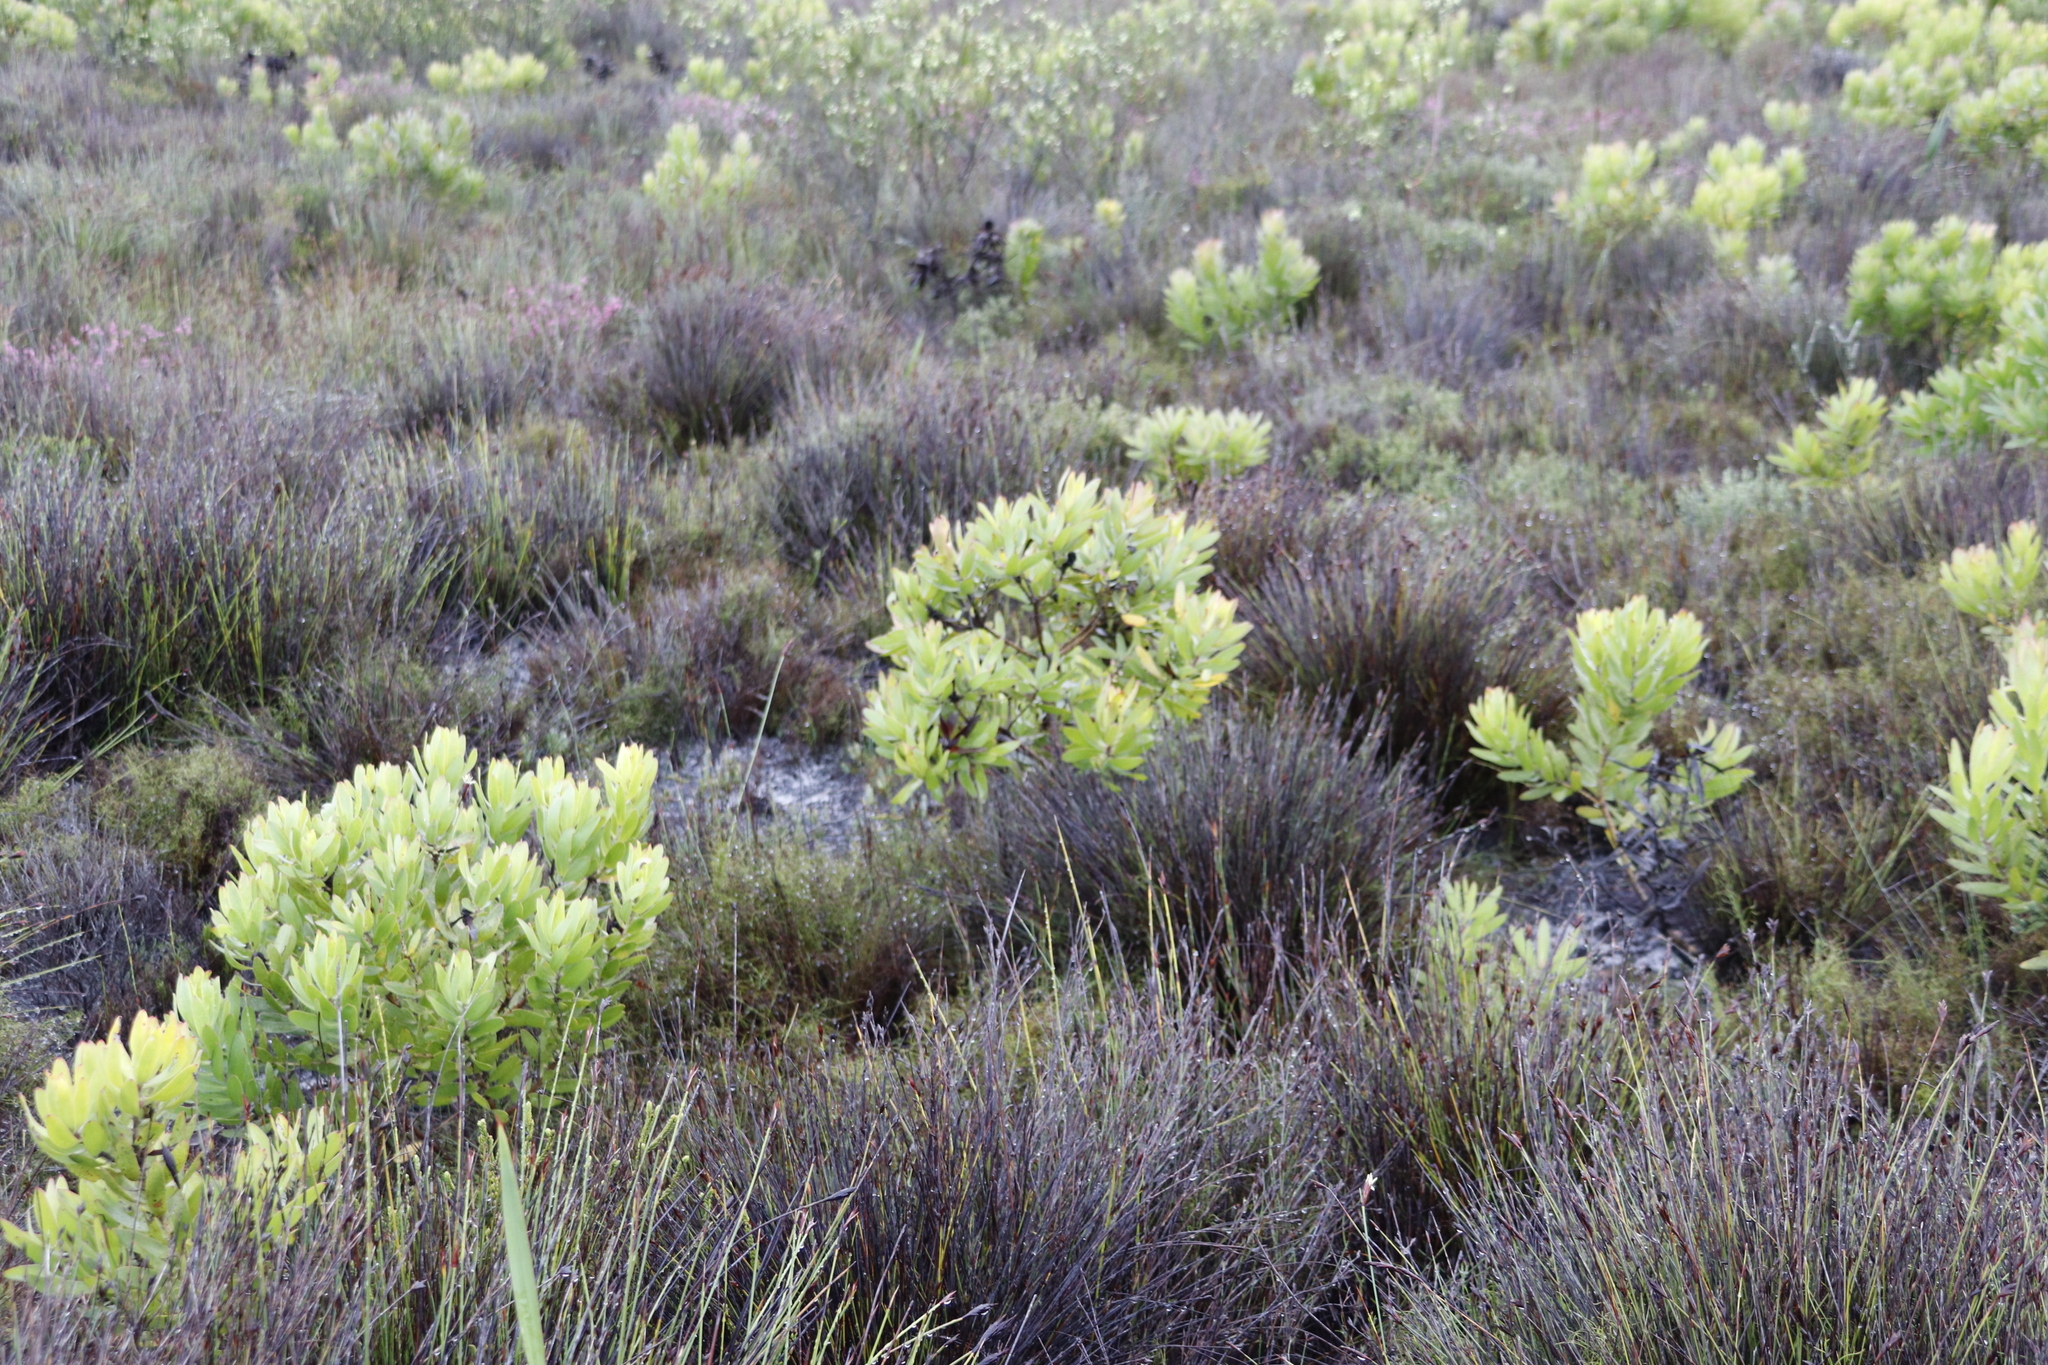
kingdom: Plantae
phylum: Tracheophyta
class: Magnoliopsida
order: Proteales
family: Proteaceae
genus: Leucadendron
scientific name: Leucadendron laureolum
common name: Golden sunshinebush
